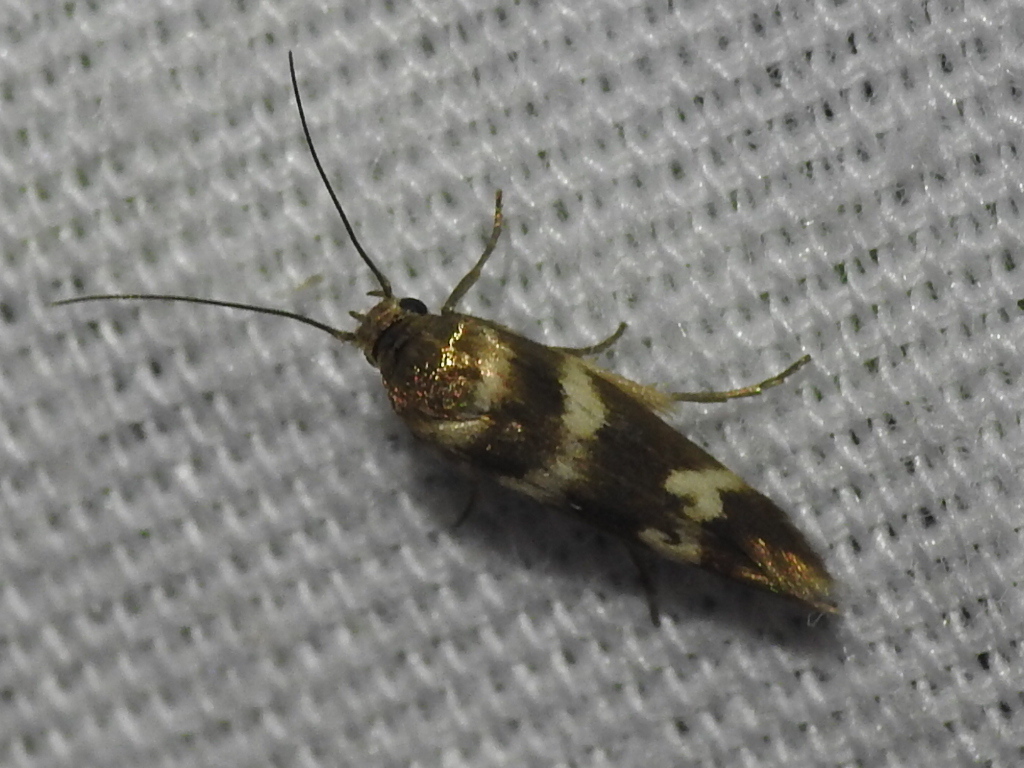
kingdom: Animalia
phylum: Arthropoda
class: Insecta
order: Lepidoptera
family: Scythrididae
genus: Scythris
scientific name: Scythris trivinctella
